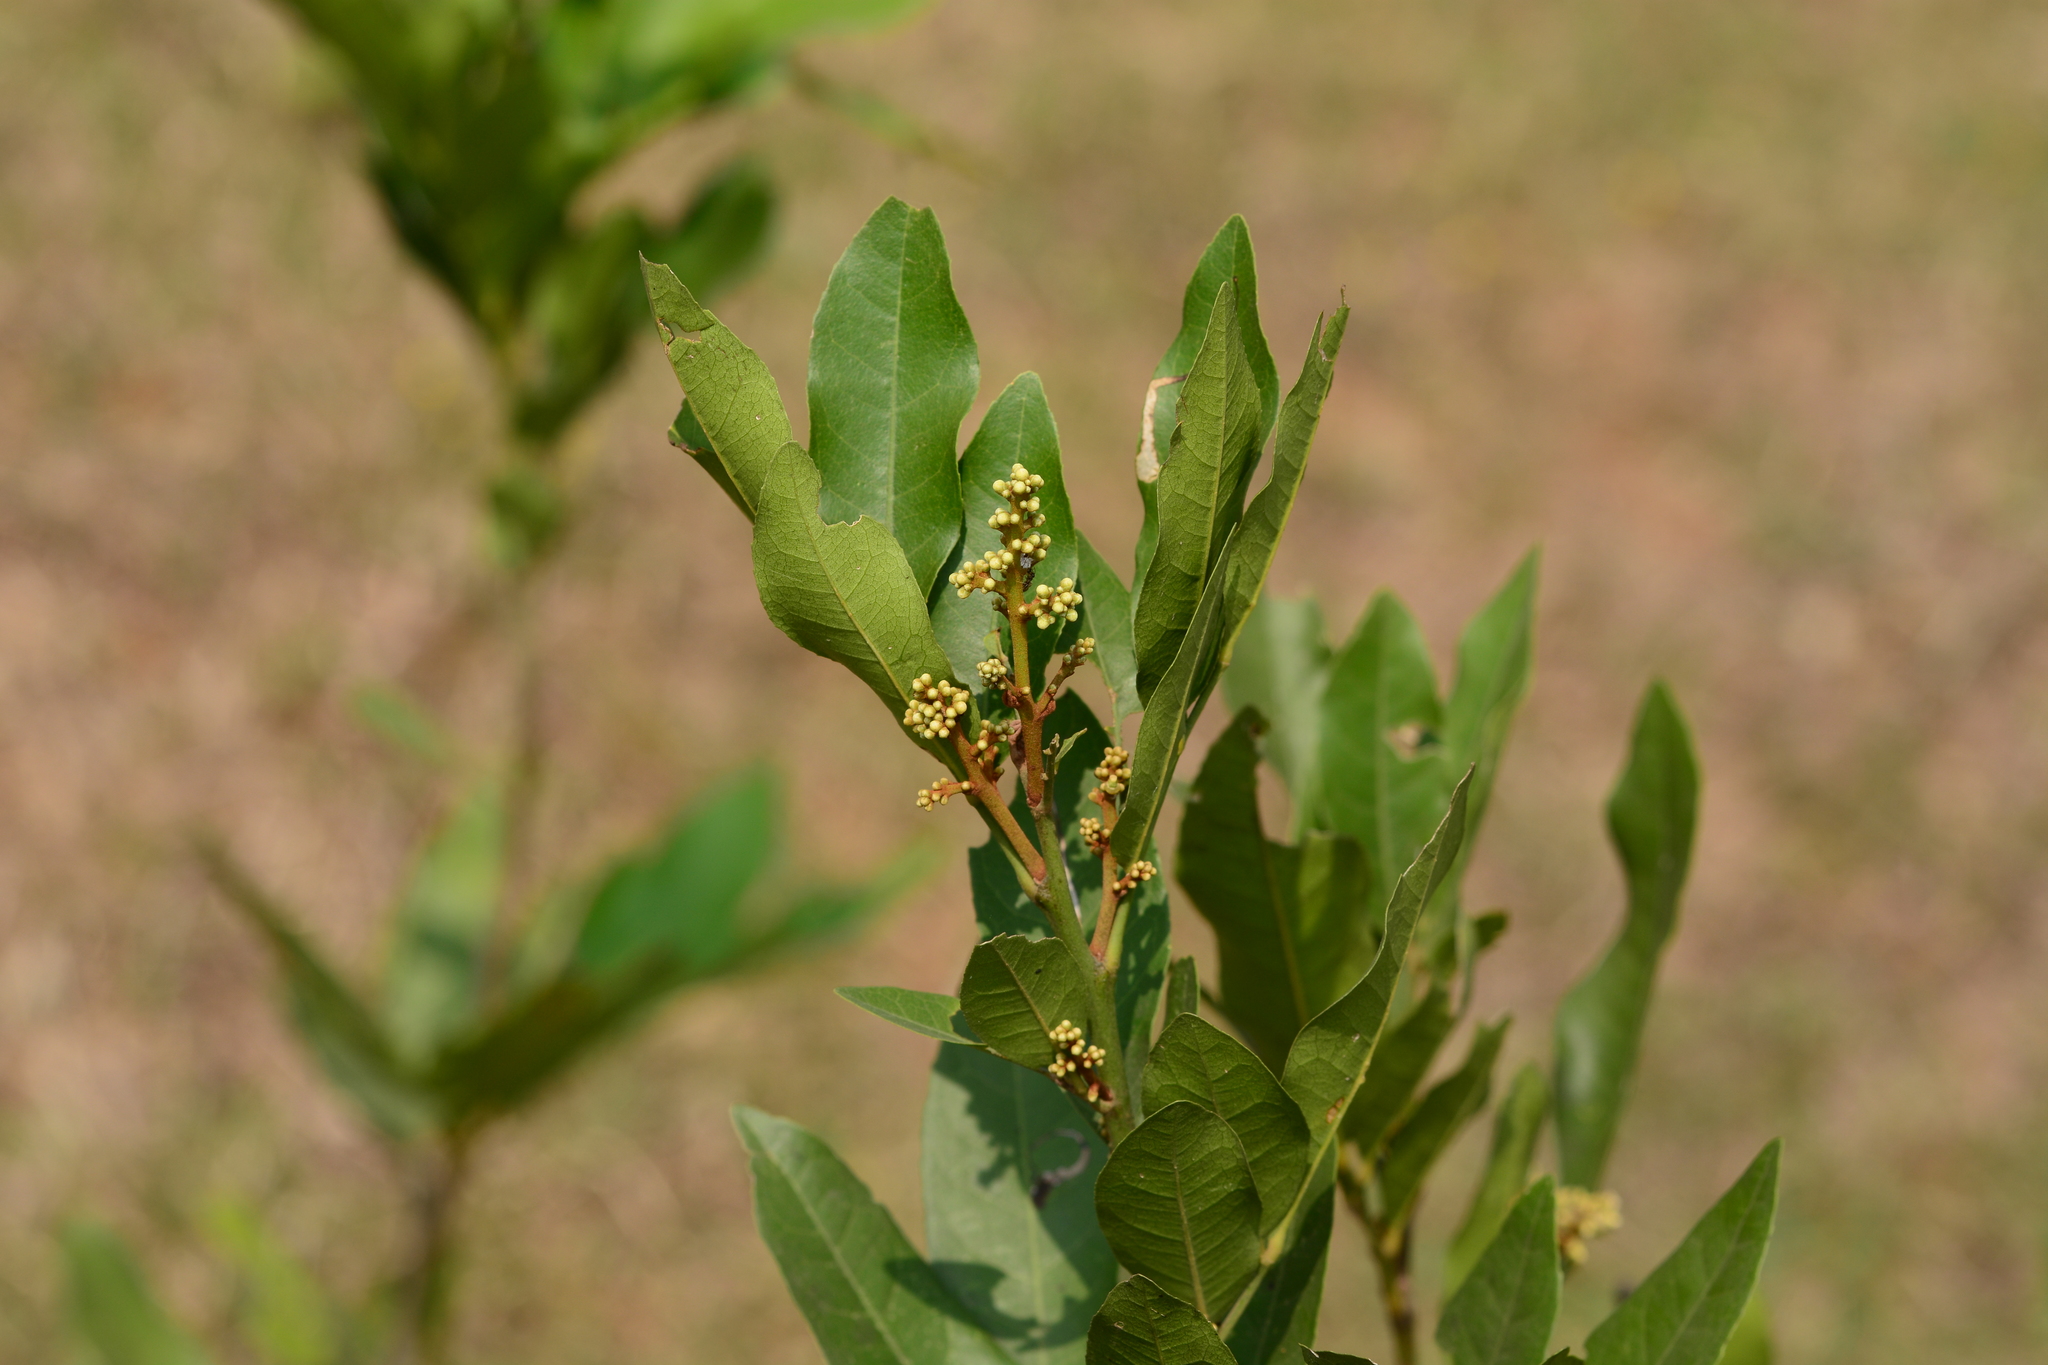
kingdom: Plantae
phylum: Tracheophyta
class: Magnoliopsida
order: Sapindales
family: Rutaceae
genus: Glycosmis
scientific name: Glycosmis pentaphylla
